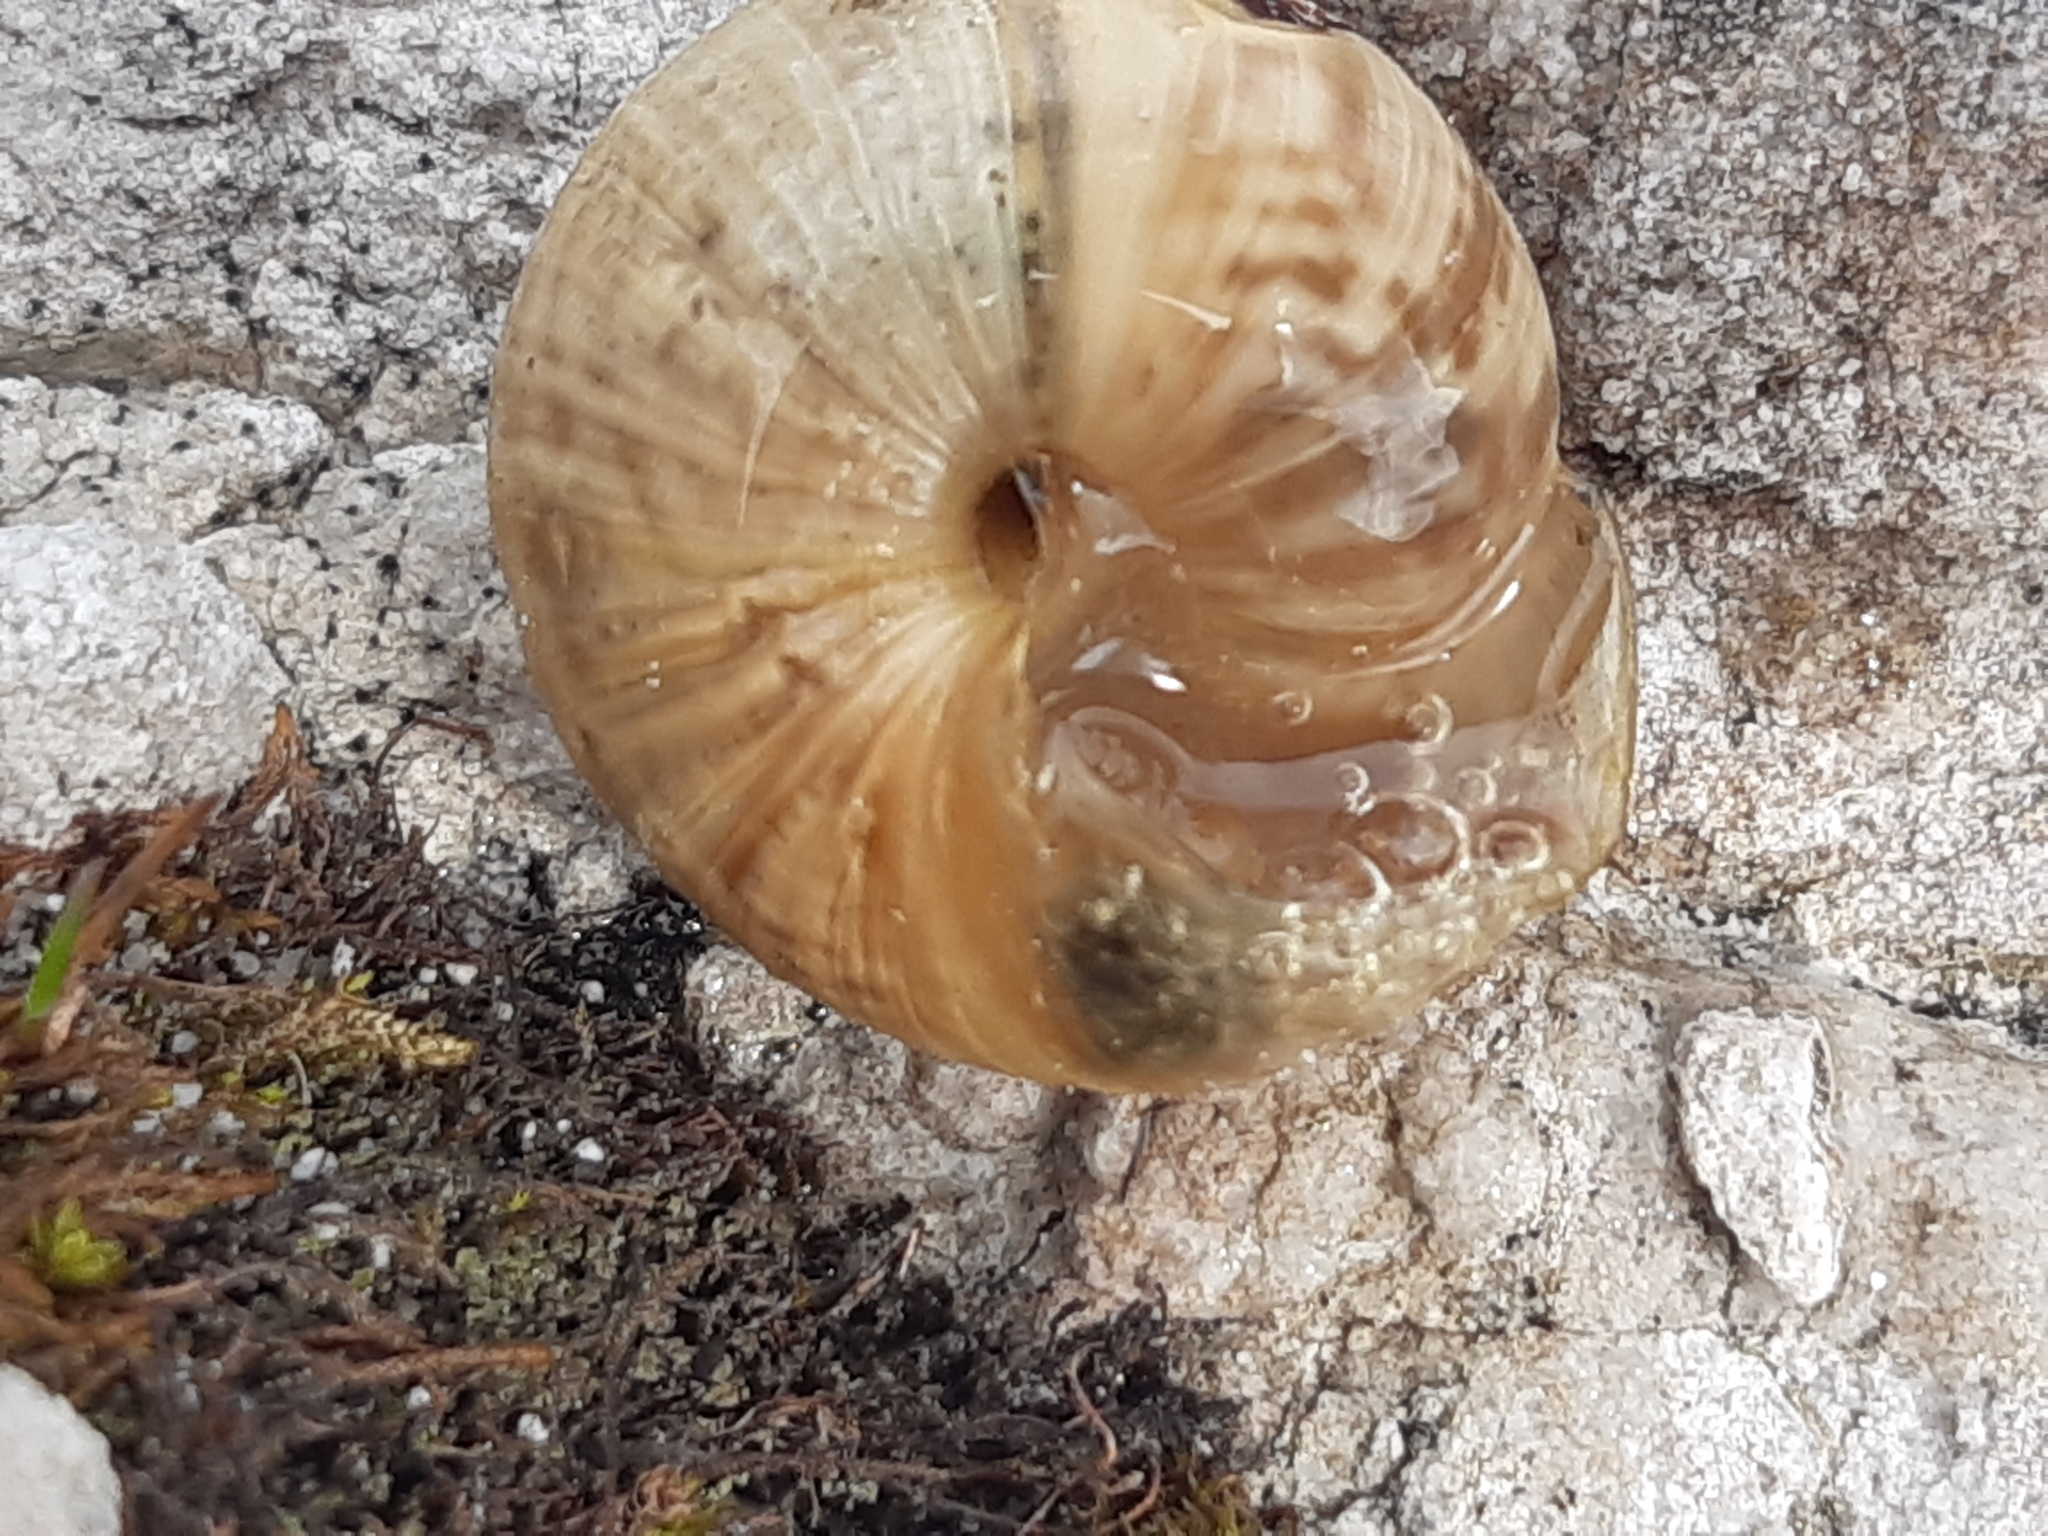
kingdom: Animalia
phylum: Mollusca
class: Gastropoda
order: Stylommatophora
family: Helicidae
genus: Arianta
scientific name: Arianta arbustorum
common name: Copse snail
